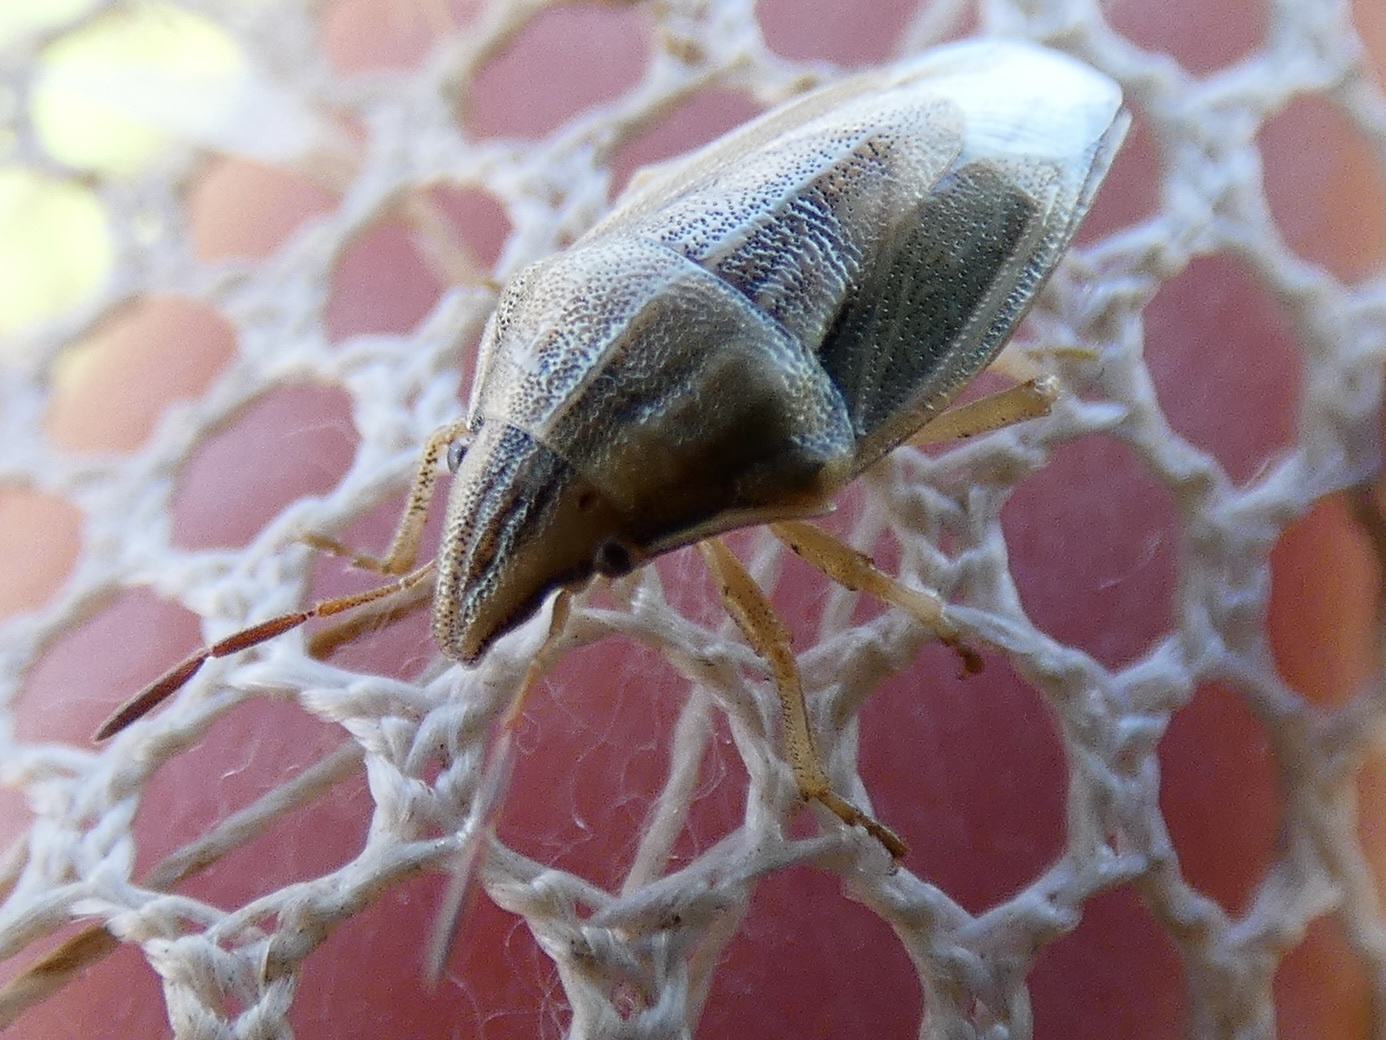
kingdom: Animalia
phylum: Arthropoda
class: Insecta
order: Hemiptera
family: Pentatomidae
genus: Aelia
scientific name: Aelia acuminata
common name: Bishop's mitre
